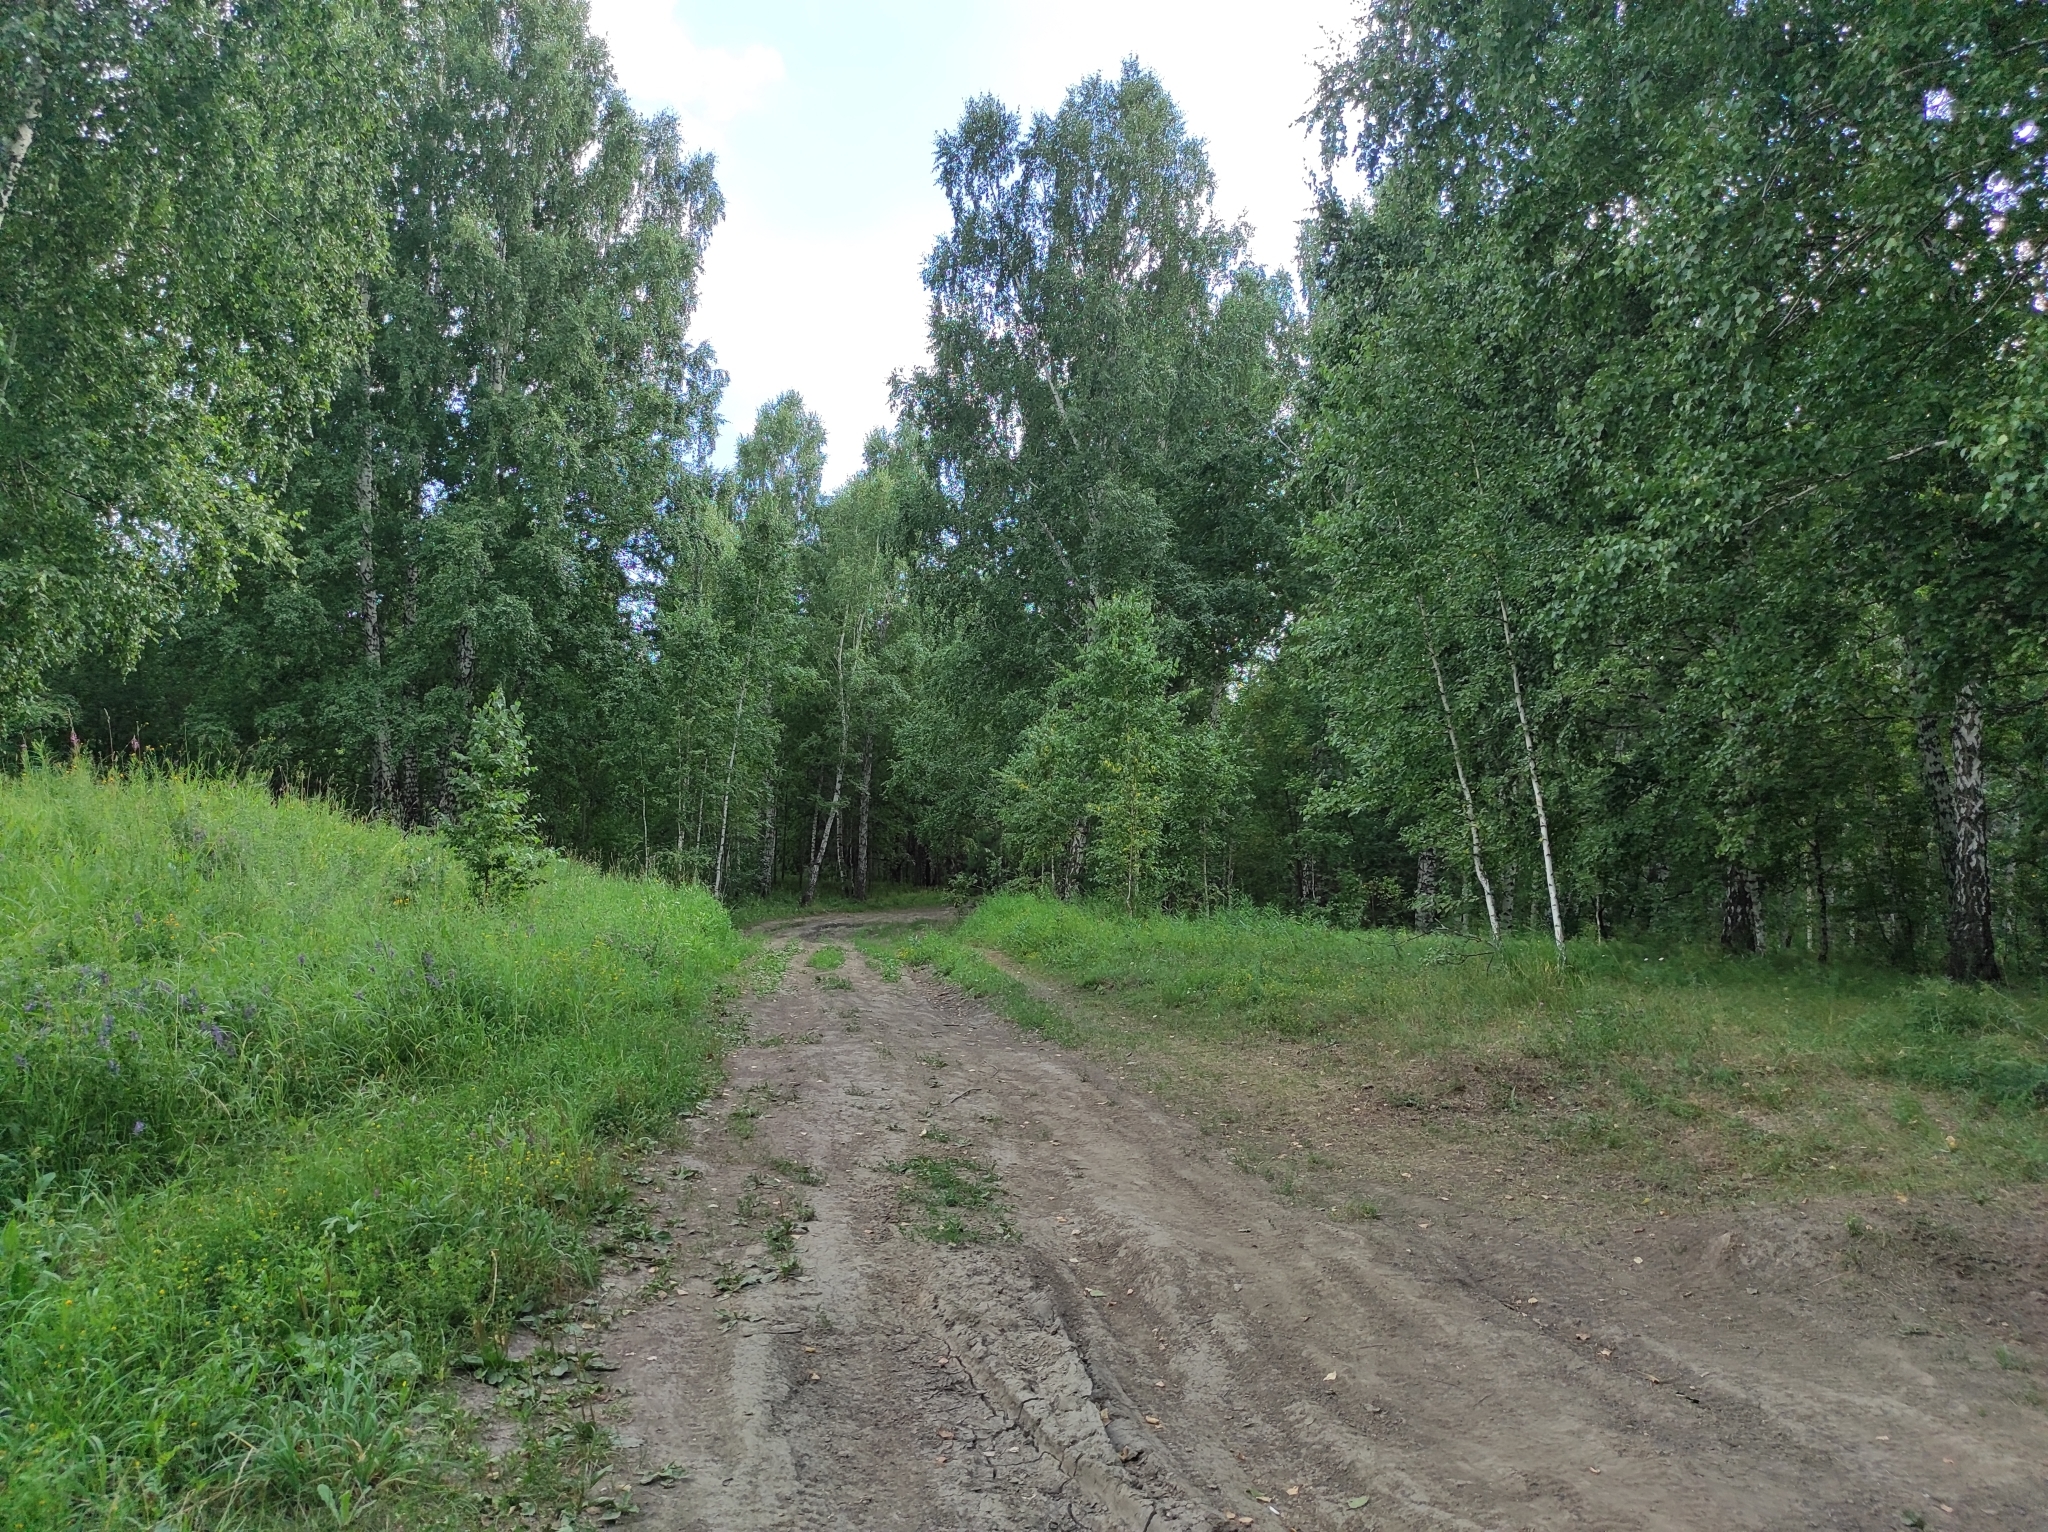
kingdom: Plantae
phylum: Tracheophyta
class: Magnoliopsida
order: Fagales
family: Betulaceae
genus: Betula
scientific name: Betula pendula
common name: Silver birch
